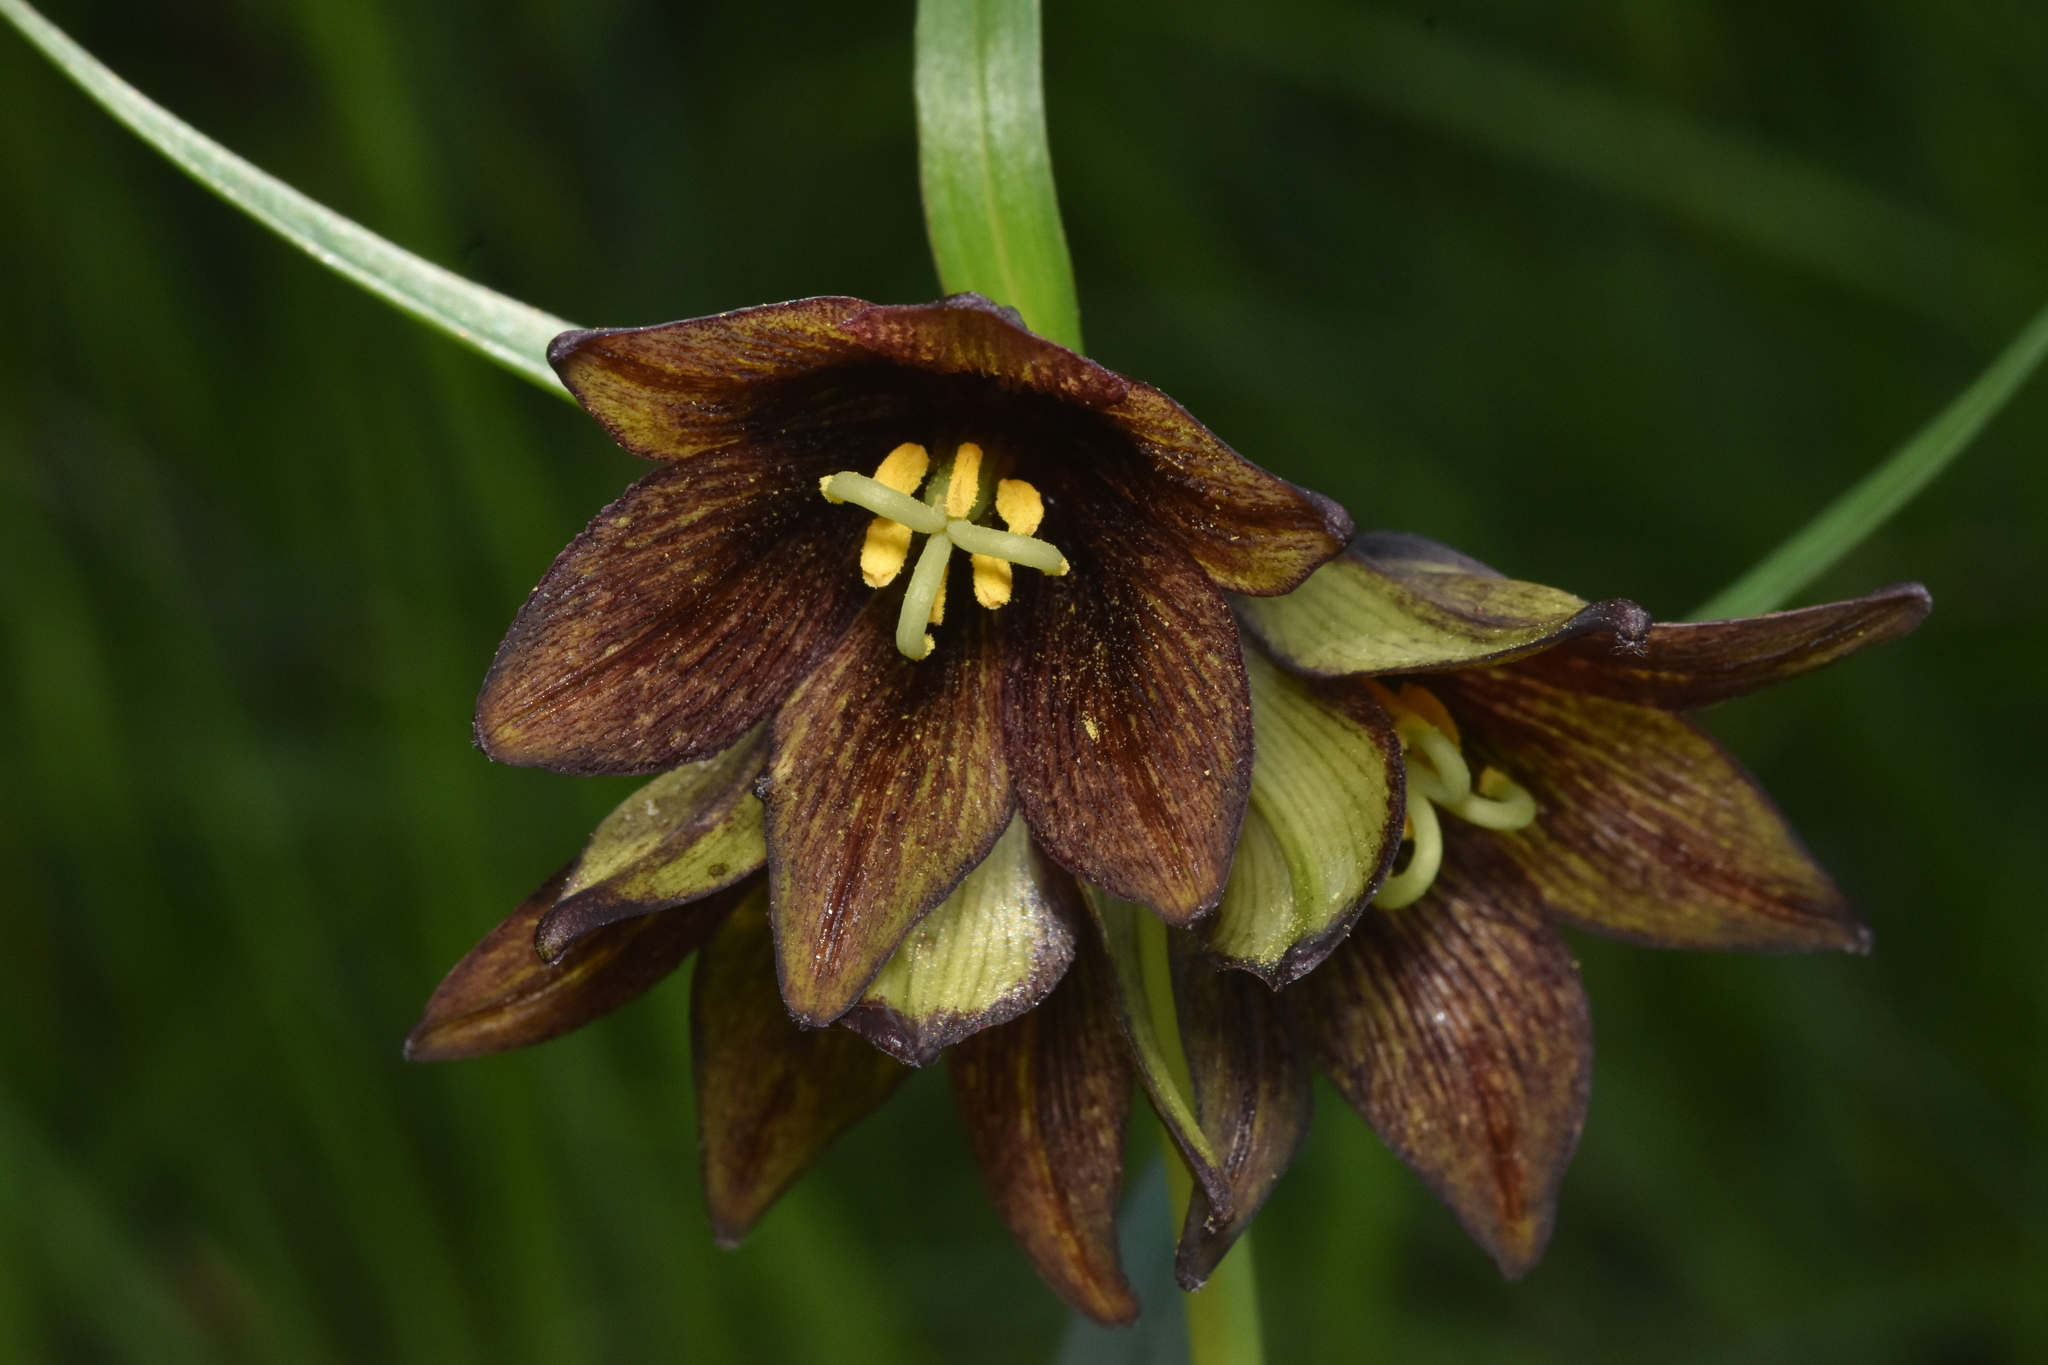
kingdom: Plantae
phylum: Tracheophyta
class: Liliopsida
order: Liliales
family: Liliaceae
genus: Fritillaria
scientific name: Fritillaria camschatcensis
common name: Kamchatka fritillary
